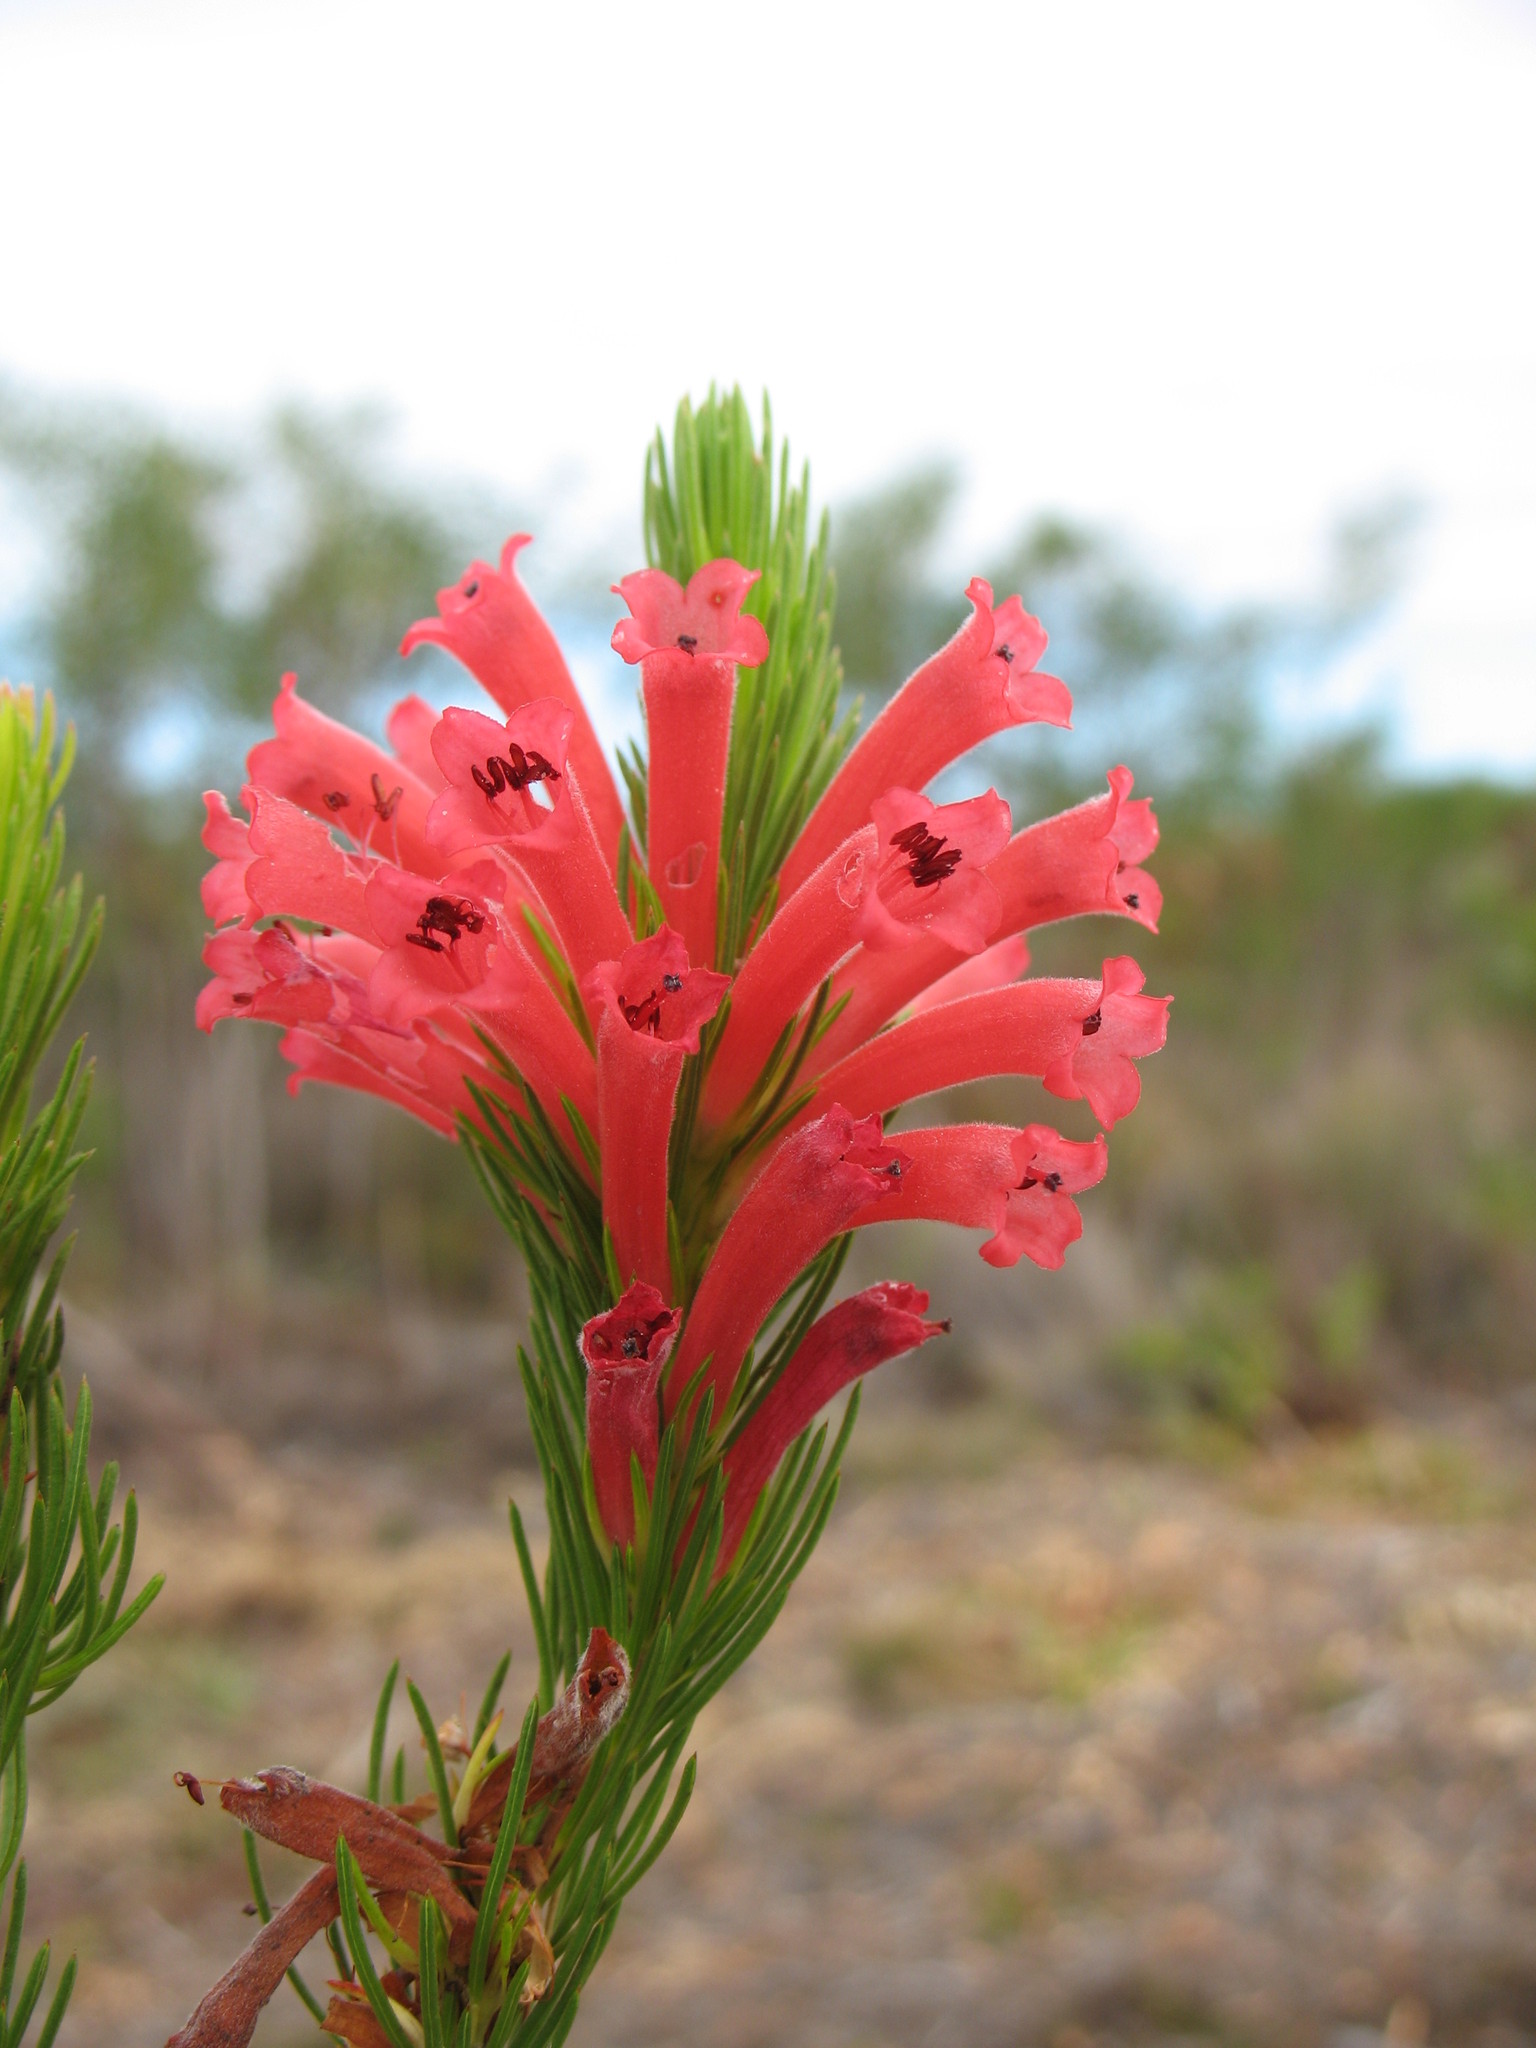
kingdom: Plantae
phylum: Tracheophyta
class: Magnoliopsida
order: Ericales
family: Ericaceae
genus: Erica
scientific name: Erica vestita
